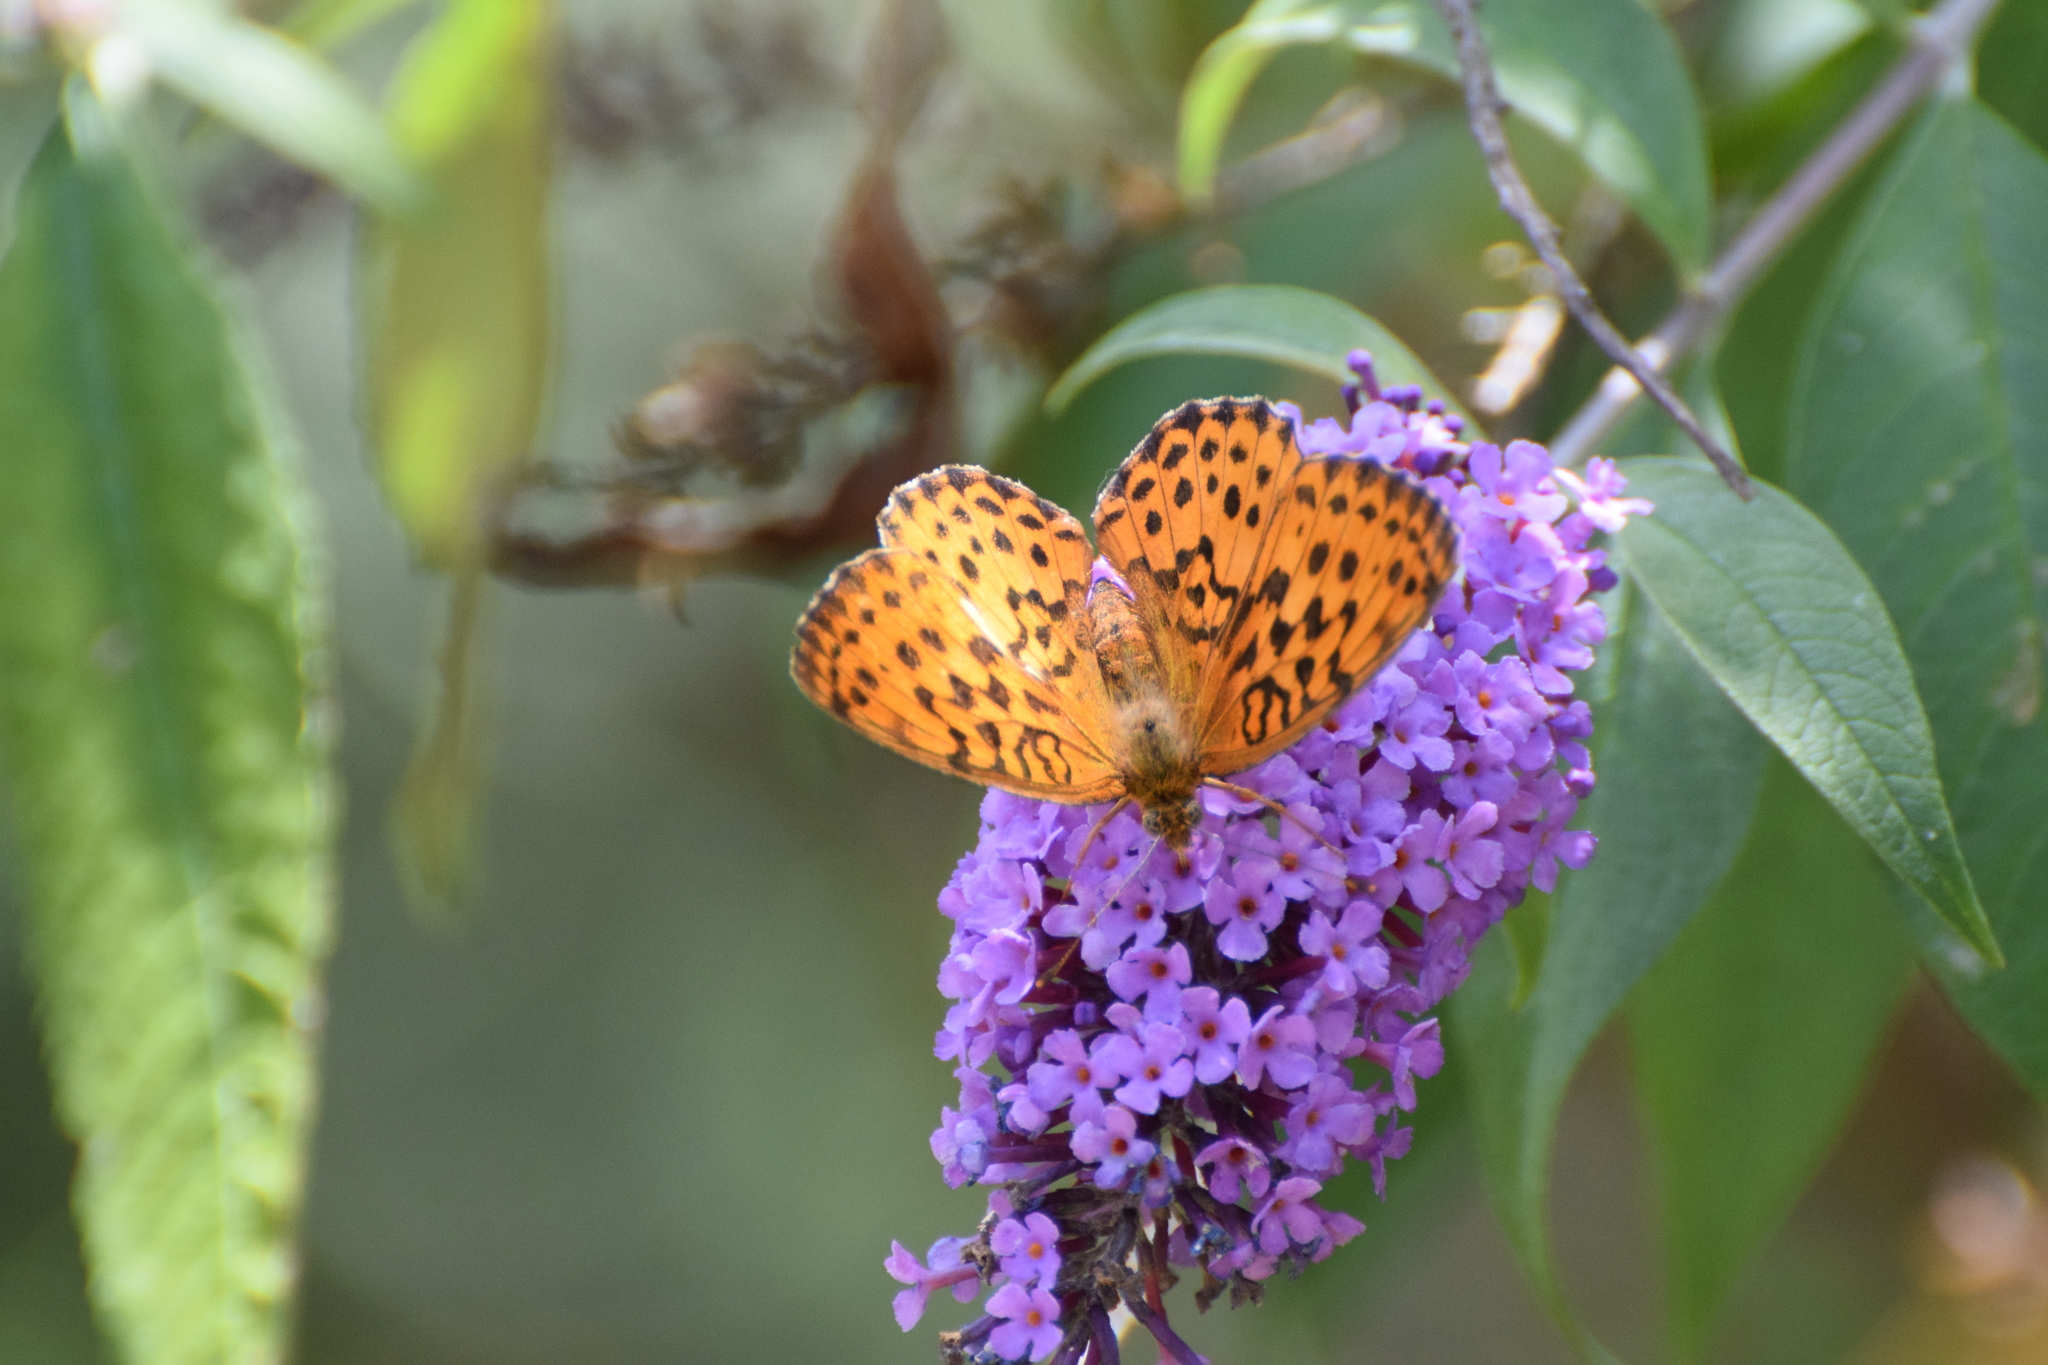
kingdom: Animalia
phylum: Arthropoda
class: Insecta
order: Lepidoptera
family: Nymphalidae
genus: Brenthis
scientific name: Brenthis daphne
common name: Marbled fritillary
